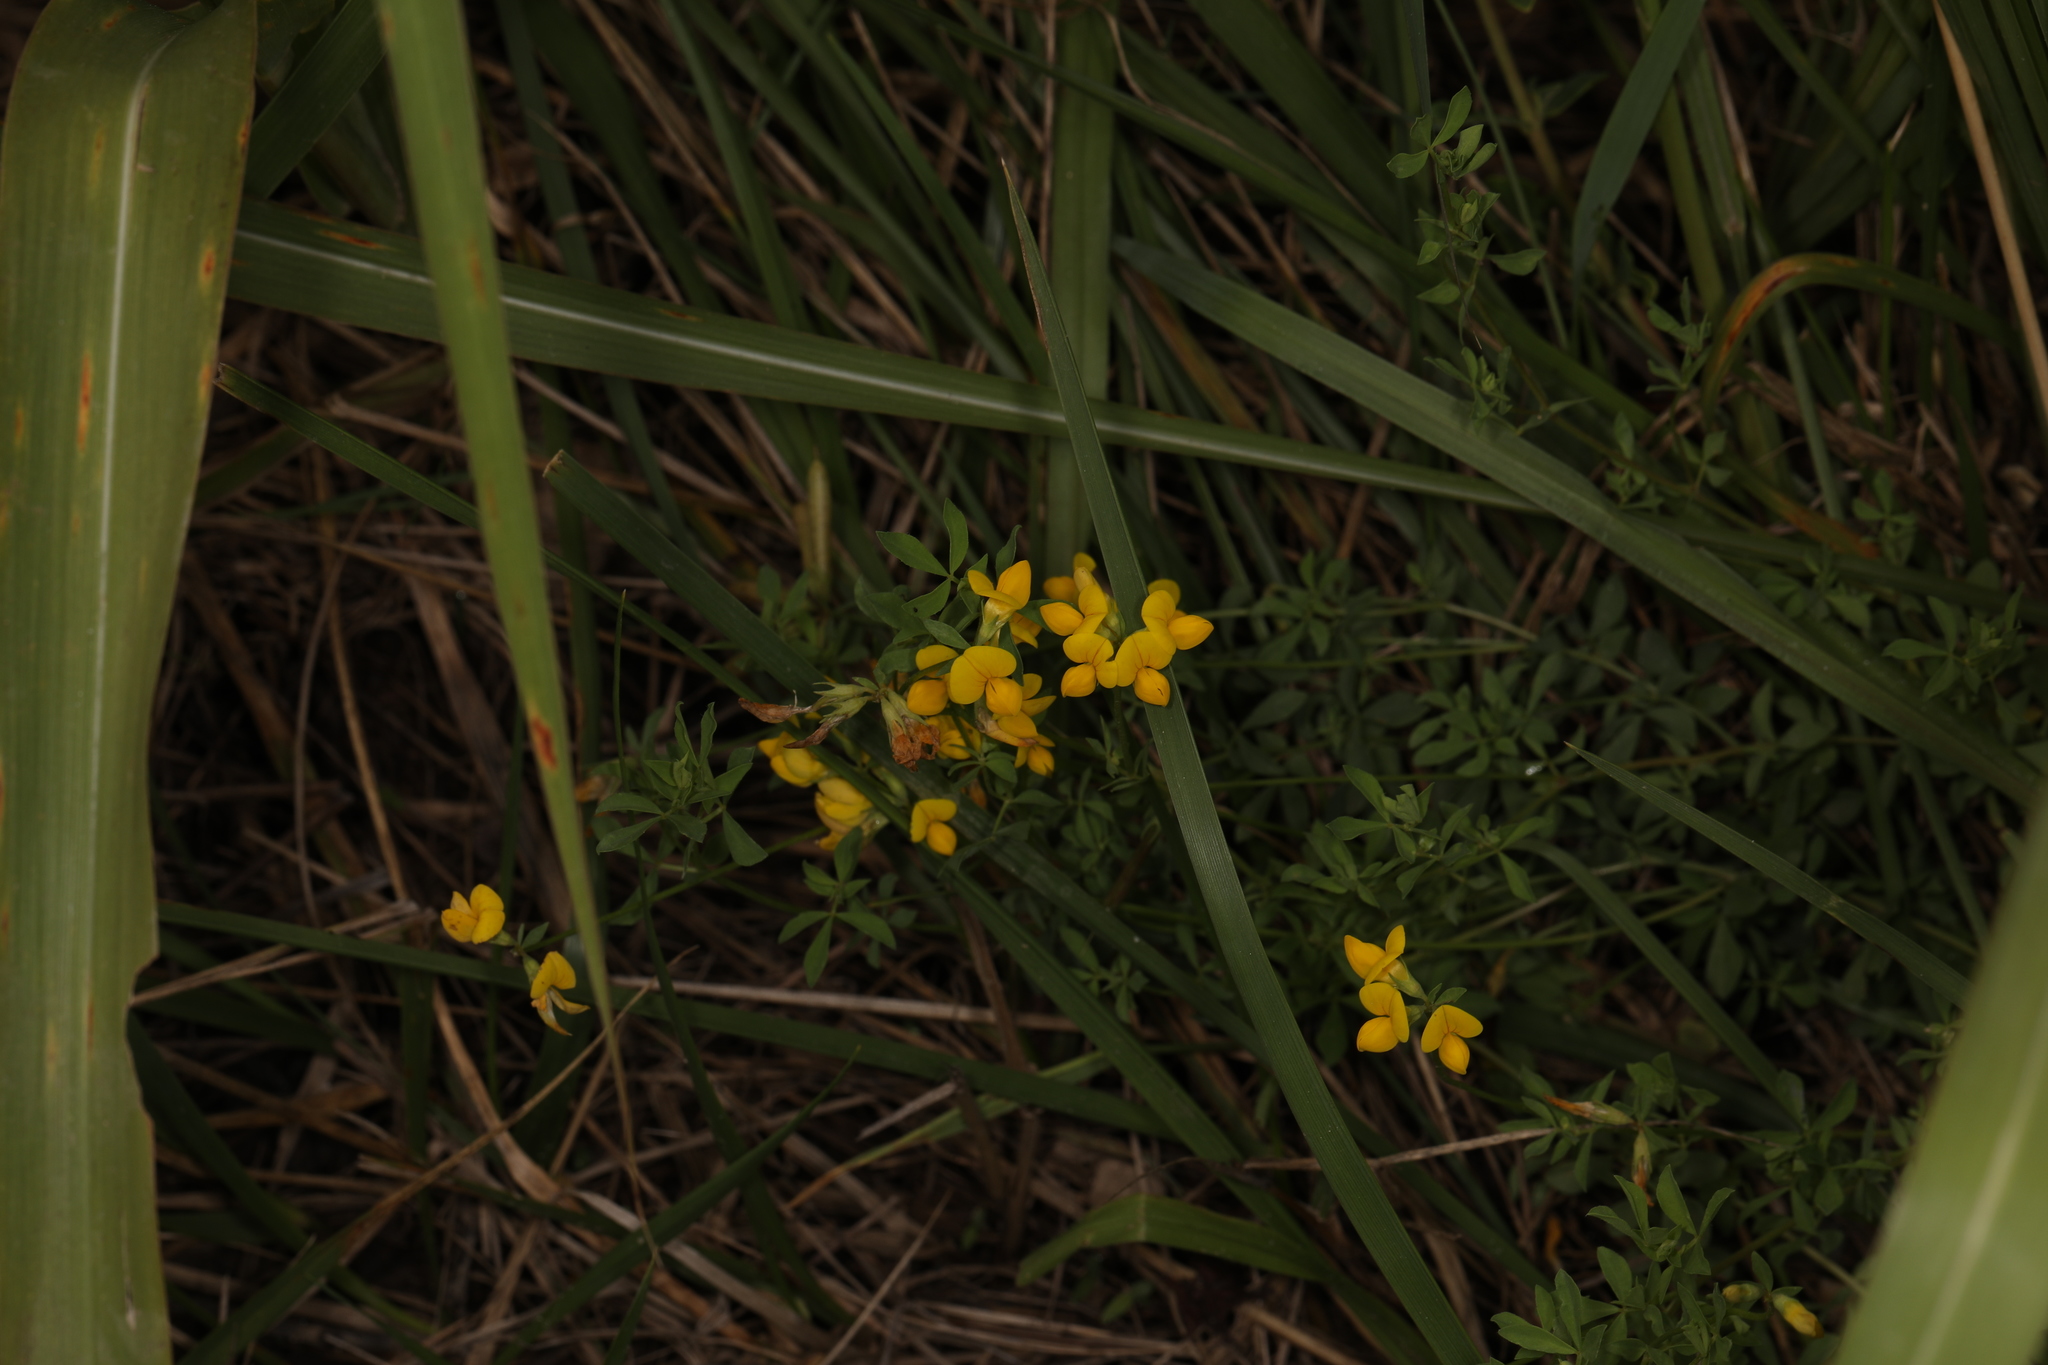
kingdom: Plantae
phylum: Tracheophyta
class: Magnoliopsida
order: Fabales
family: Fabaceae
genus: Lotus
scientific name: Lotus corniculatus
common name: Common bird's-foot-trefoil
